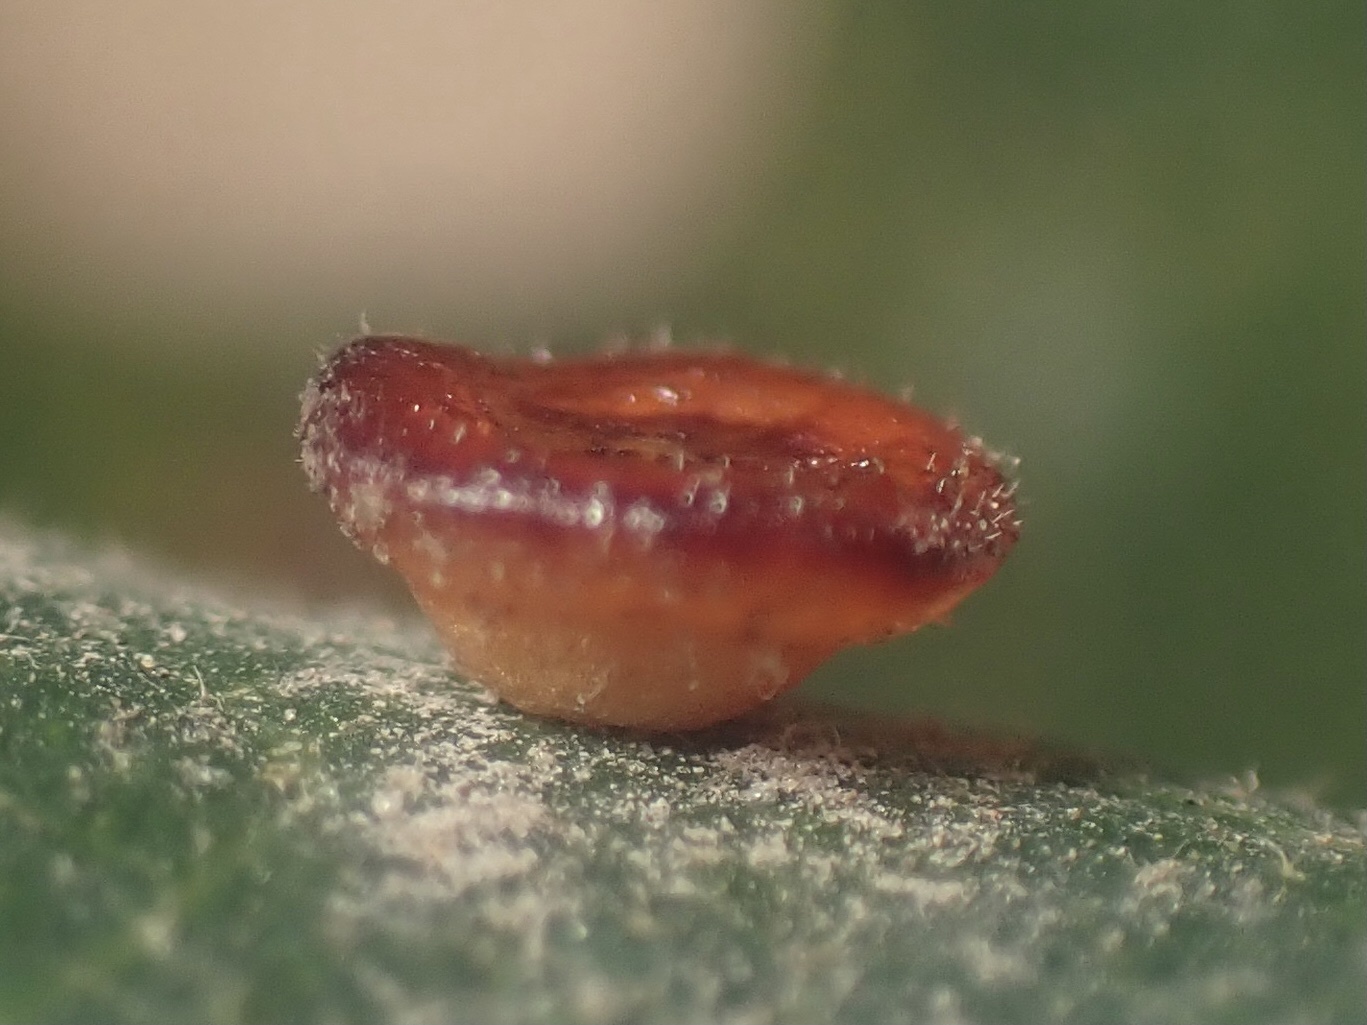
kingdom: Animalia
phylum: Arthropoda
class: Insecta
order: Hymenoptera
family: Cynipidae
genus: Andricus
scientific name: Andricus
